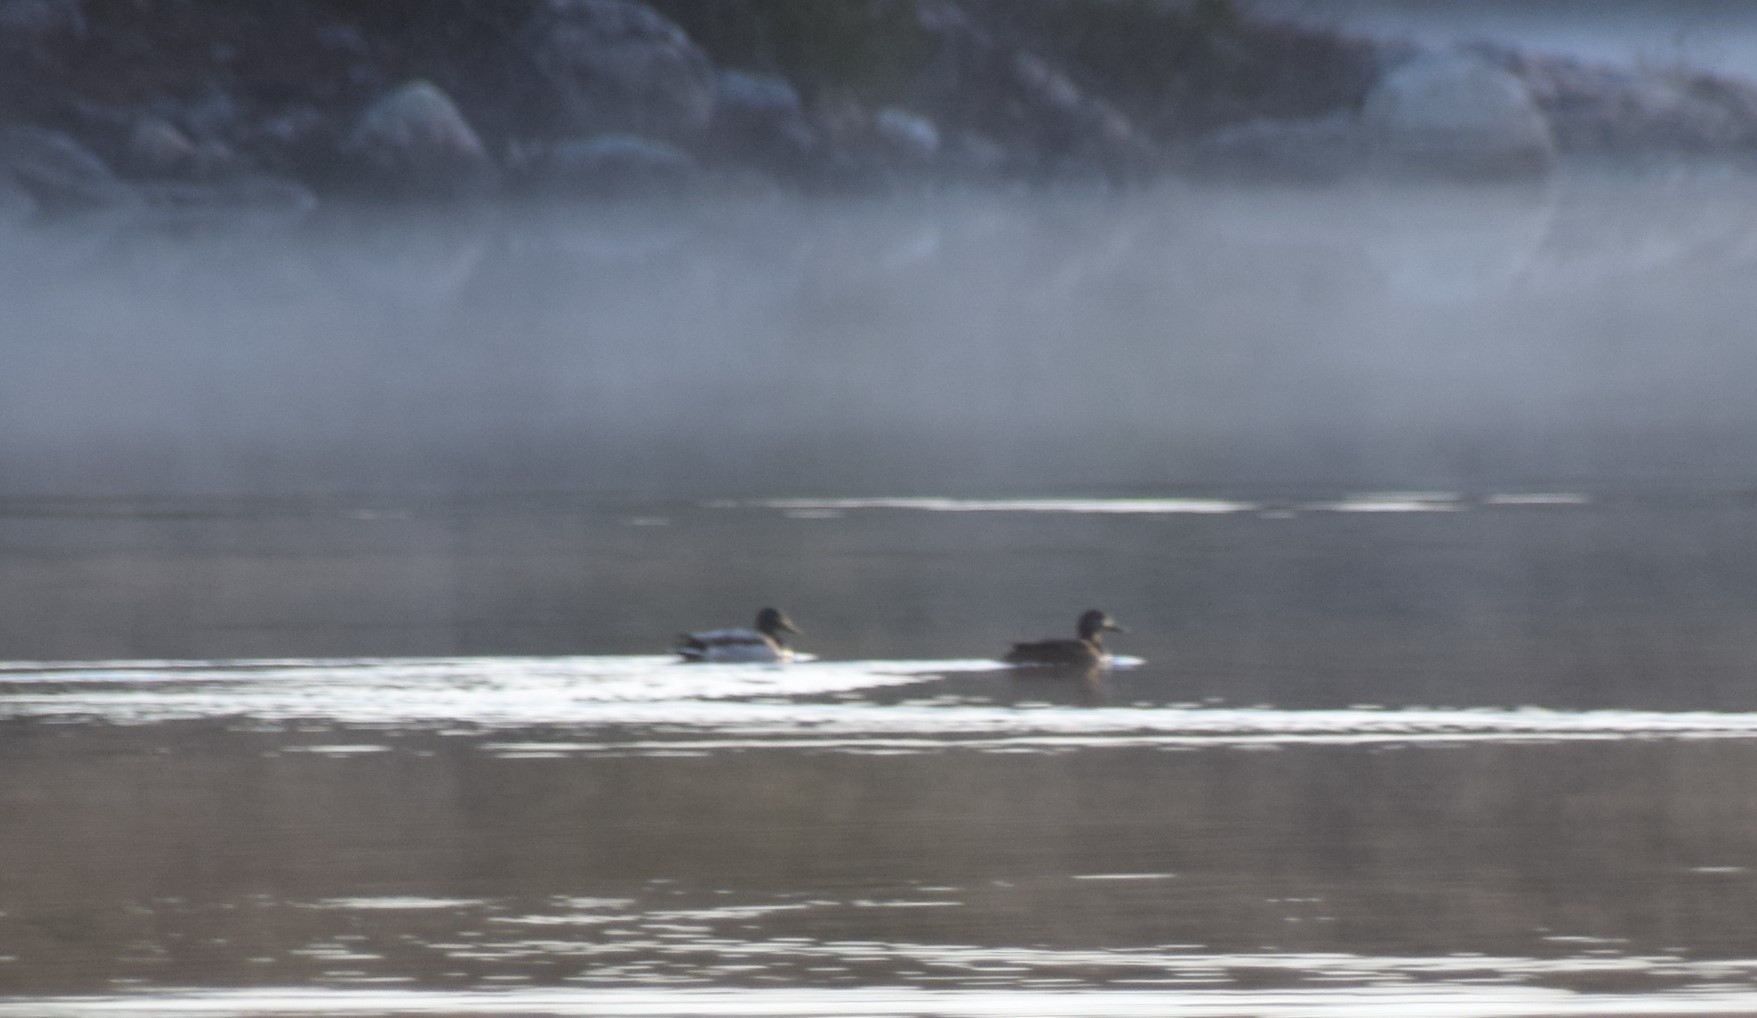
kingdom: Animalia
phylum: Chordata
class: Aves
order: Anseriformes
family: Anatidae
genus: Anas
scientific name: Anas platyrhynchos
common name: Mallard
